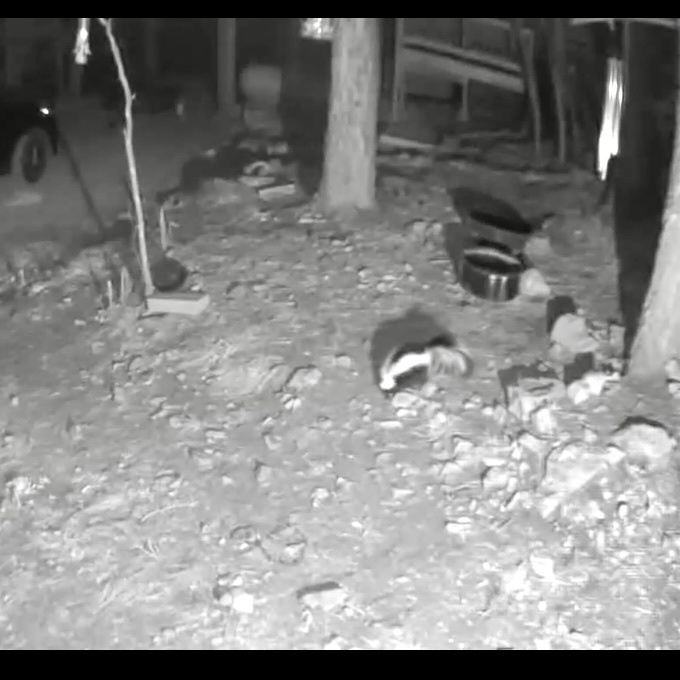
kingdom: Animalia
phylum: Chordata
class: Mammalia
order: Carnivora
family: Mephitidae
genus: Mephitis
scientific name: Mephitis mephitis
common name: Striped skunk
